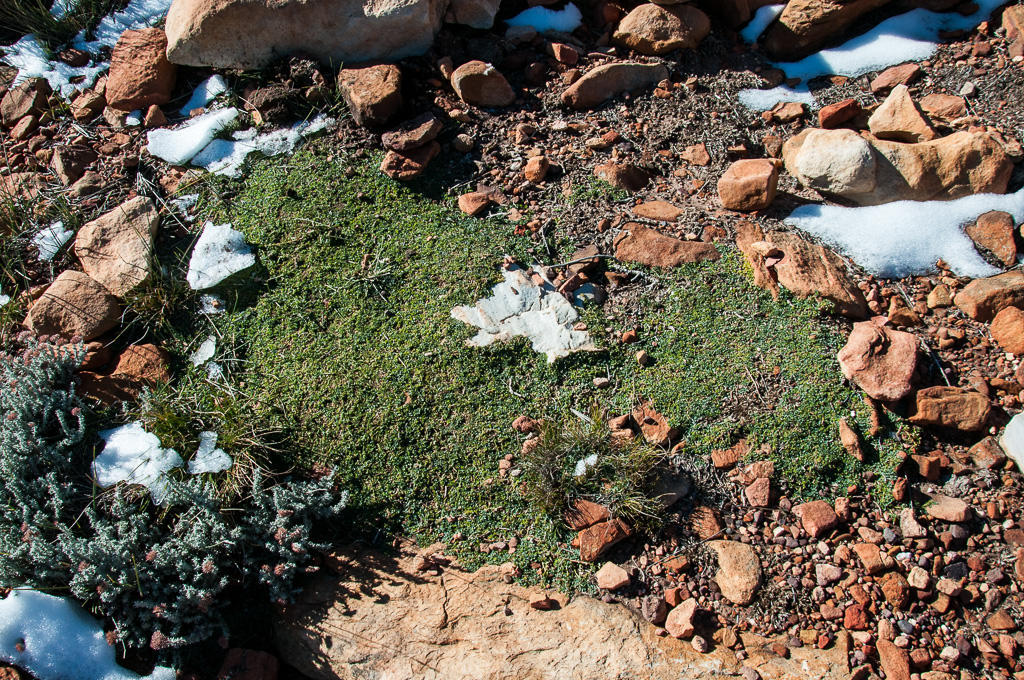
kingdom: Plantae
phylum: Tracheophyta
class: Magnoliopsida
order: Fabales
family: Fabaceae
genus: Indigofera
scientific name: Indigofera
